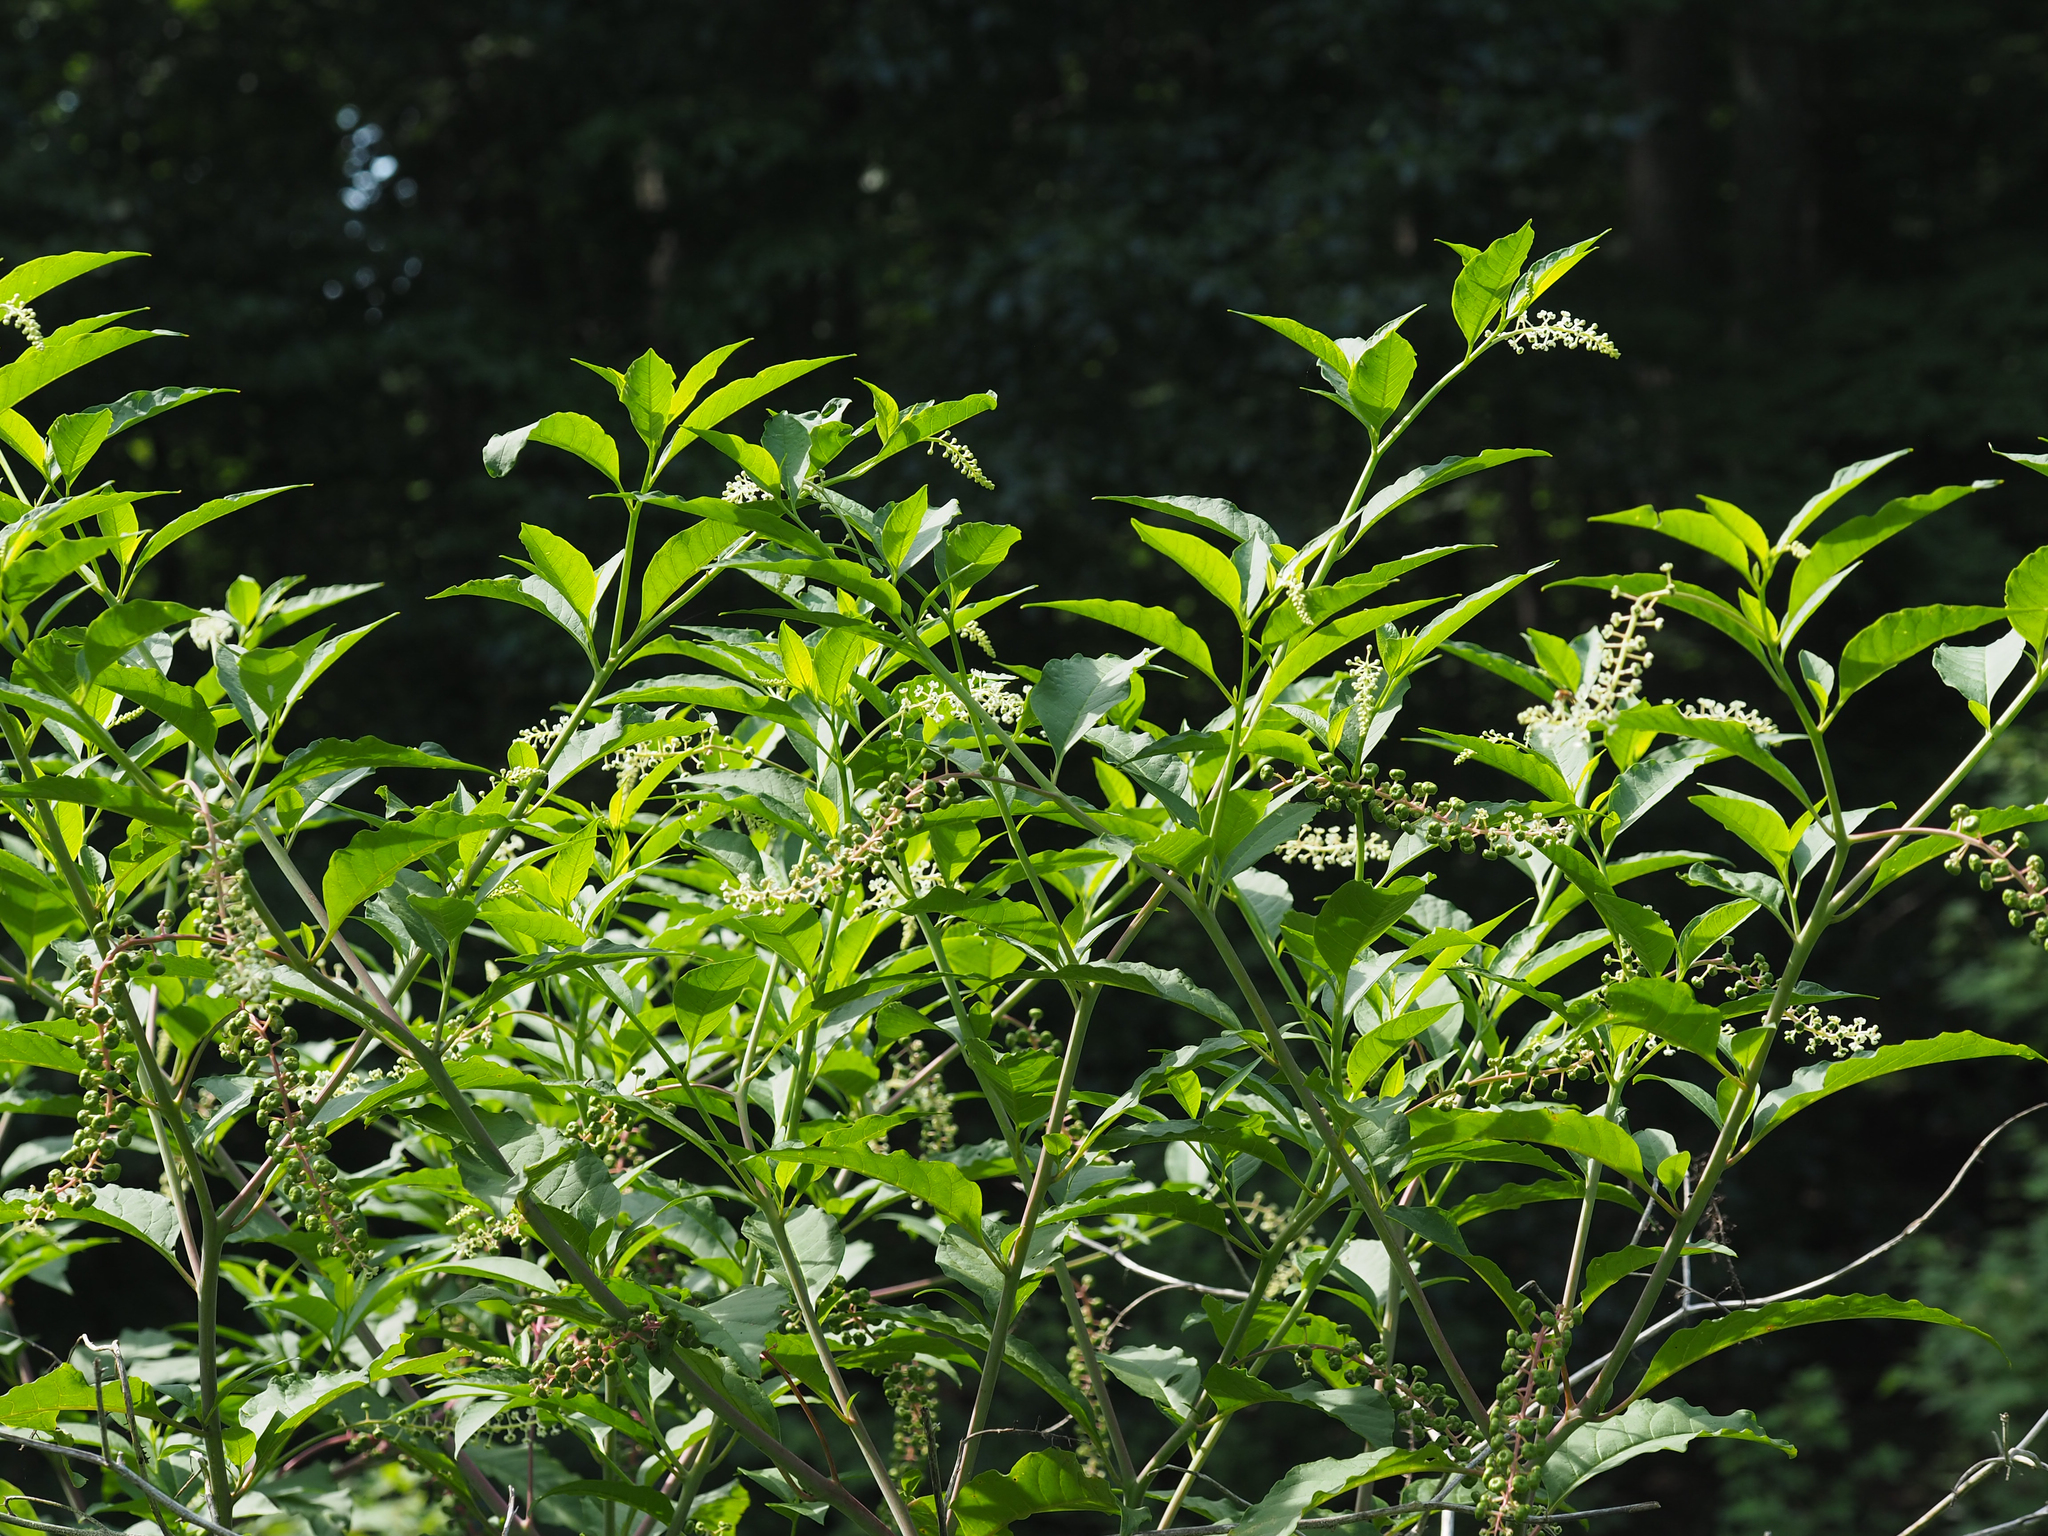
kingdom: Plantae
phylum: Tracheophyta
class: Magnoliopsida
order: Caryophyllales
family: Phytolaccaceae
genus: Phytolacca
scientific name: Phytolacca americana
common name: American pokeweed
